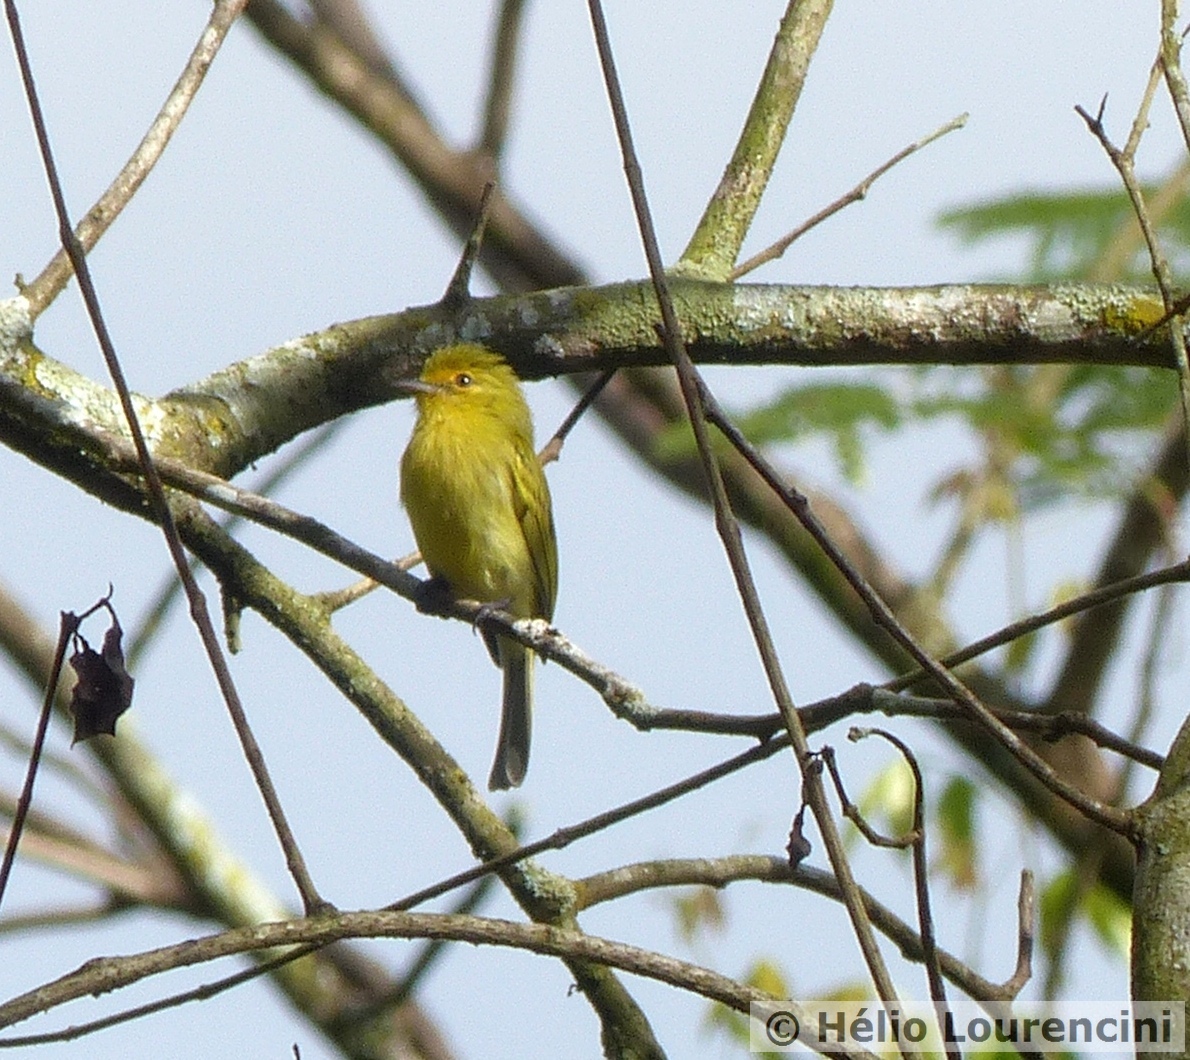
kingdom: Animalia
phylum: Chordata
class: Aves
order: Passeriformes
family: Tyrannidae
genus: Tolmomyias
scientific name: Tolmomyias flaviventris
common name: Ochre-lored flatbill
